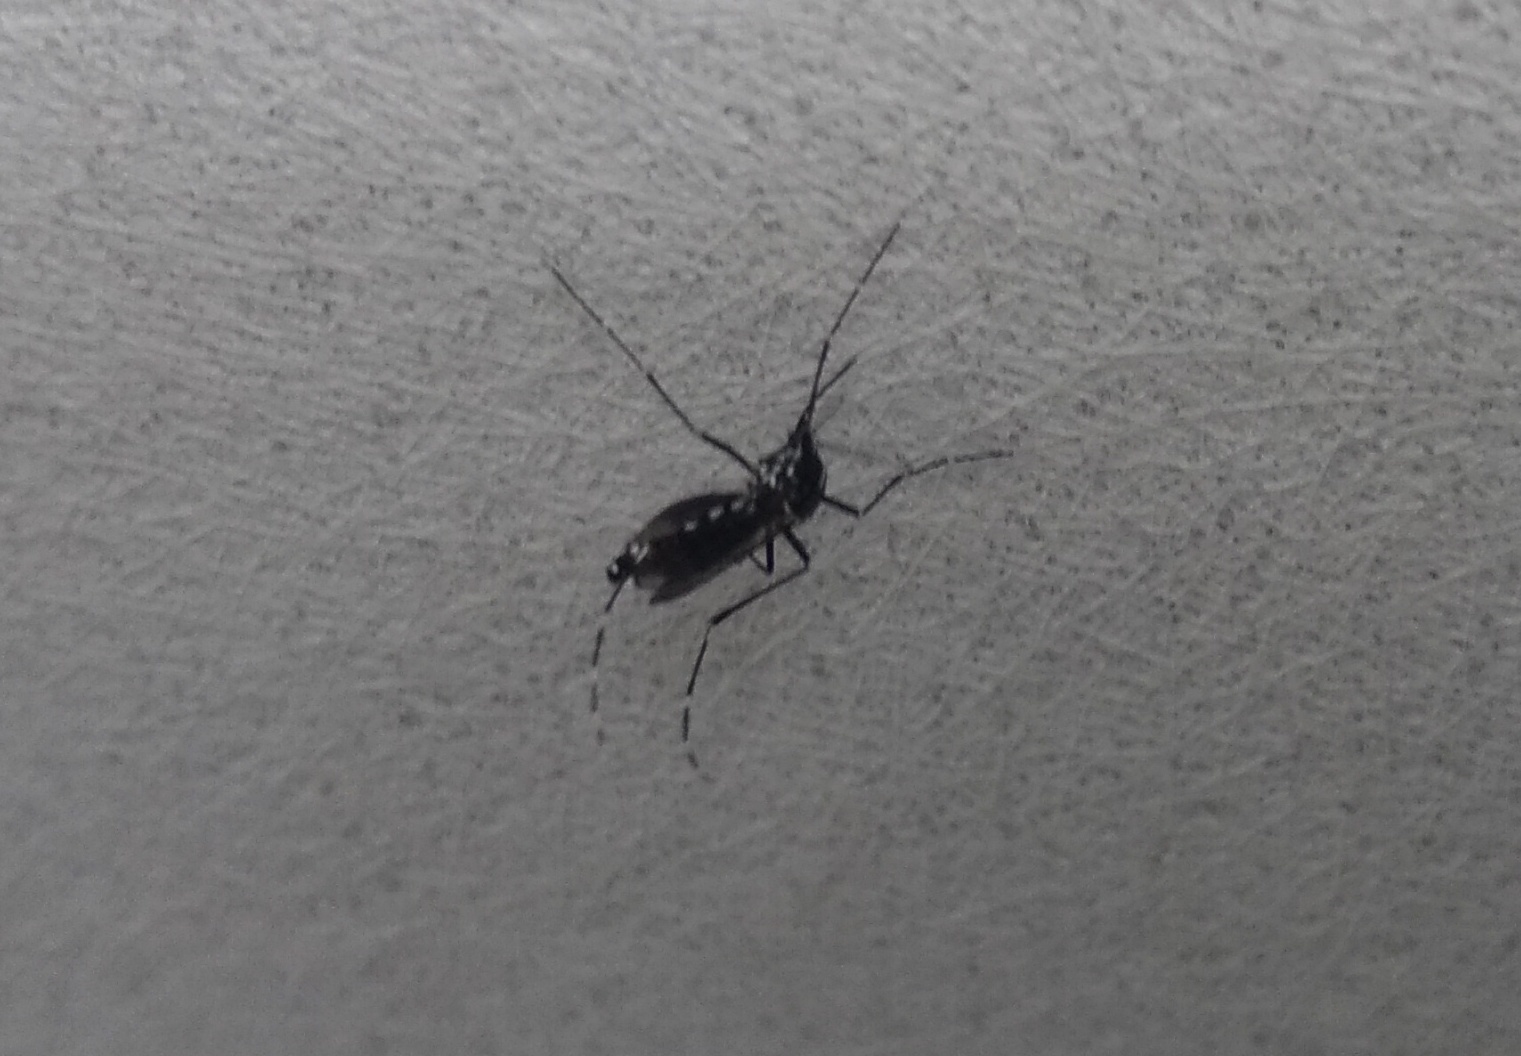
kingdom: Animalia
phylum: Arthropoda
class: Insecta
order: Diptera
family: Culicidae
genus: Aedes
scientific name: Aedes albopictus
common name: Tiger mosquito
